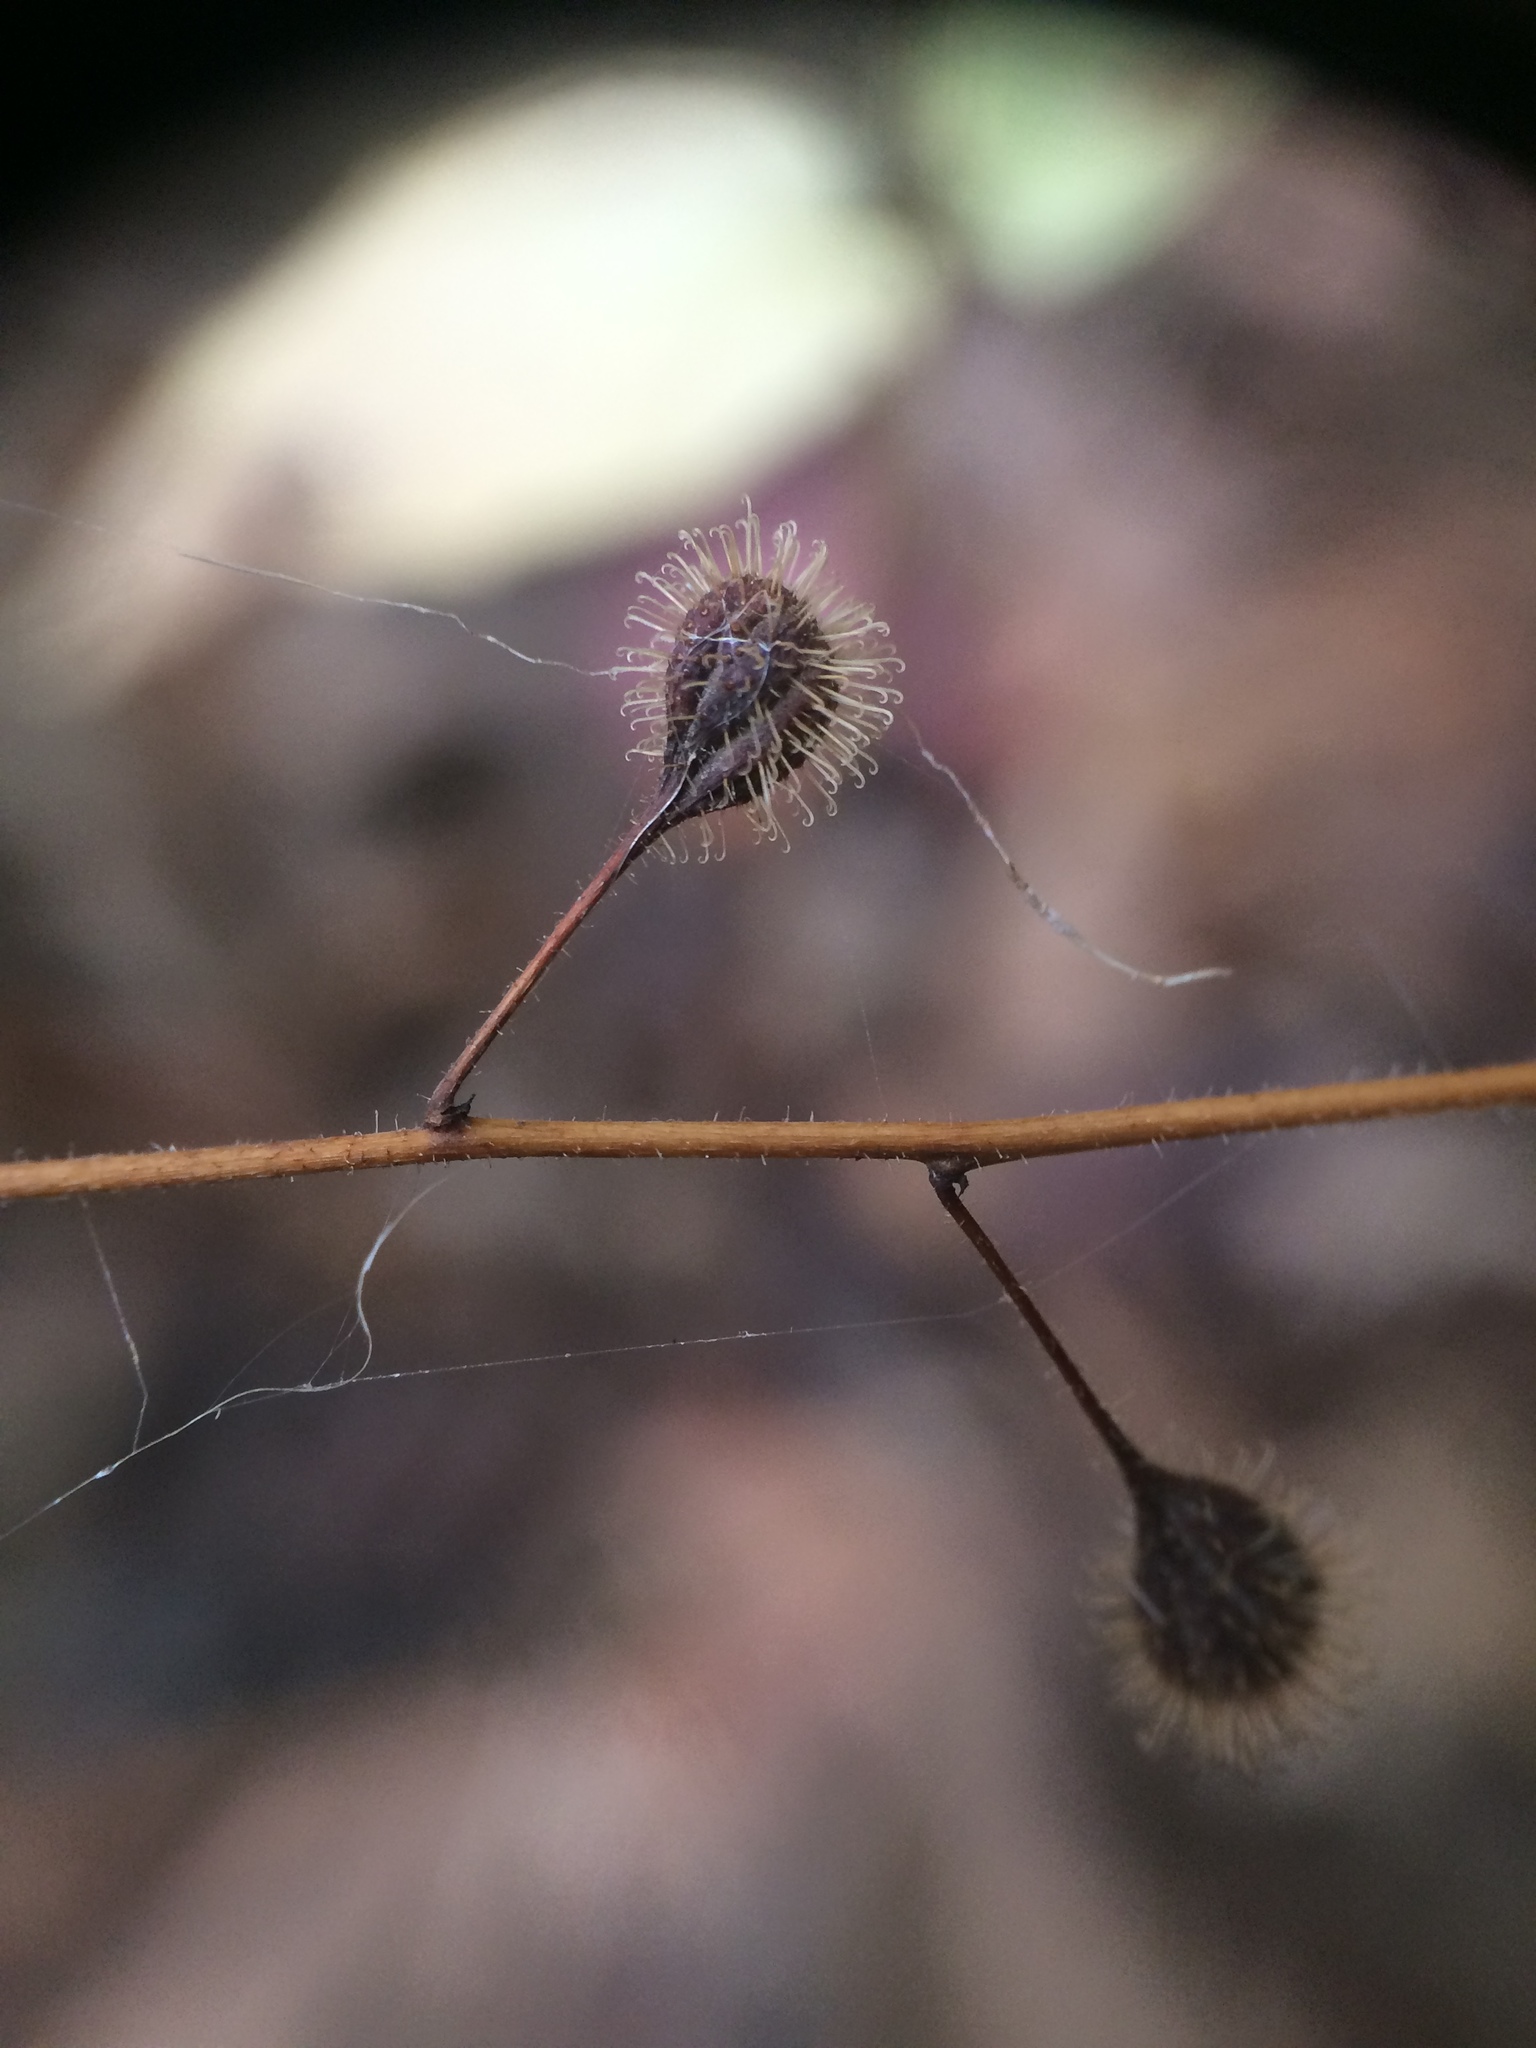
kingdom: Plantae
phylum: Tracheophyta
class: Magnoliopsida
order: Myrtales
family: Onagraceae
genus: Circaea
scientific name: Circaea canadensis
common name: Broad-leaved enchanter's nightshade
